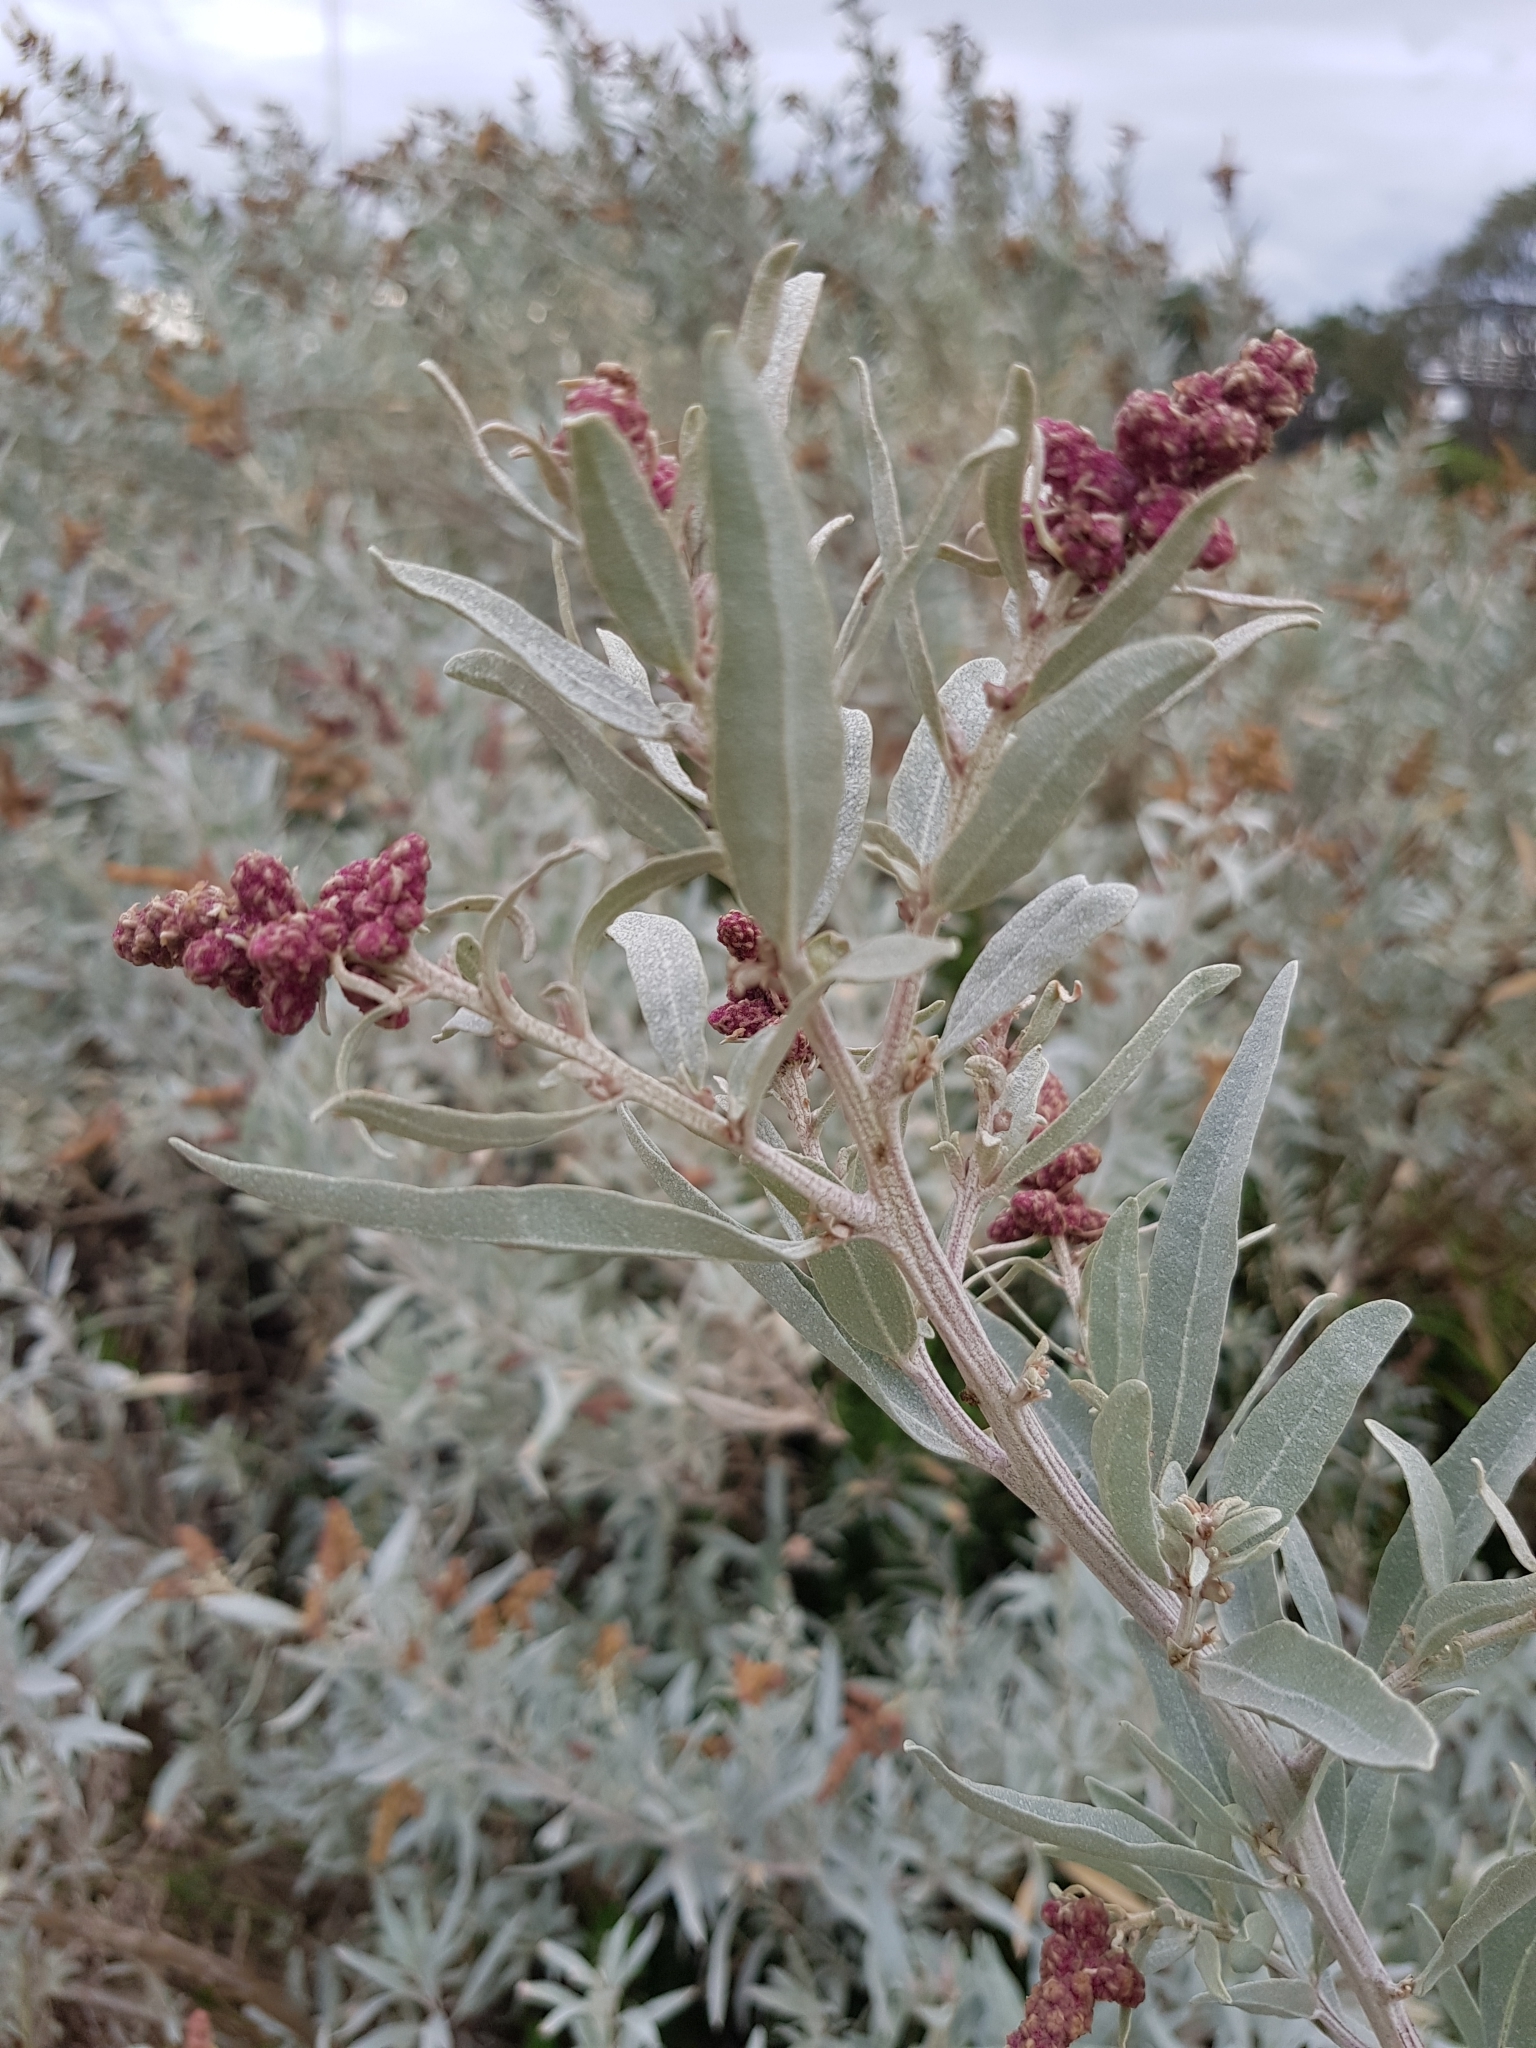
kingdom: Plantae
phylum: Tracheophyta
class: Magnoliopsida
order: Caryophyllales
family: Amaranthaceae
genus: Atriplex
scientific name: Atriplex cinerea
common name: Grey saltbush
